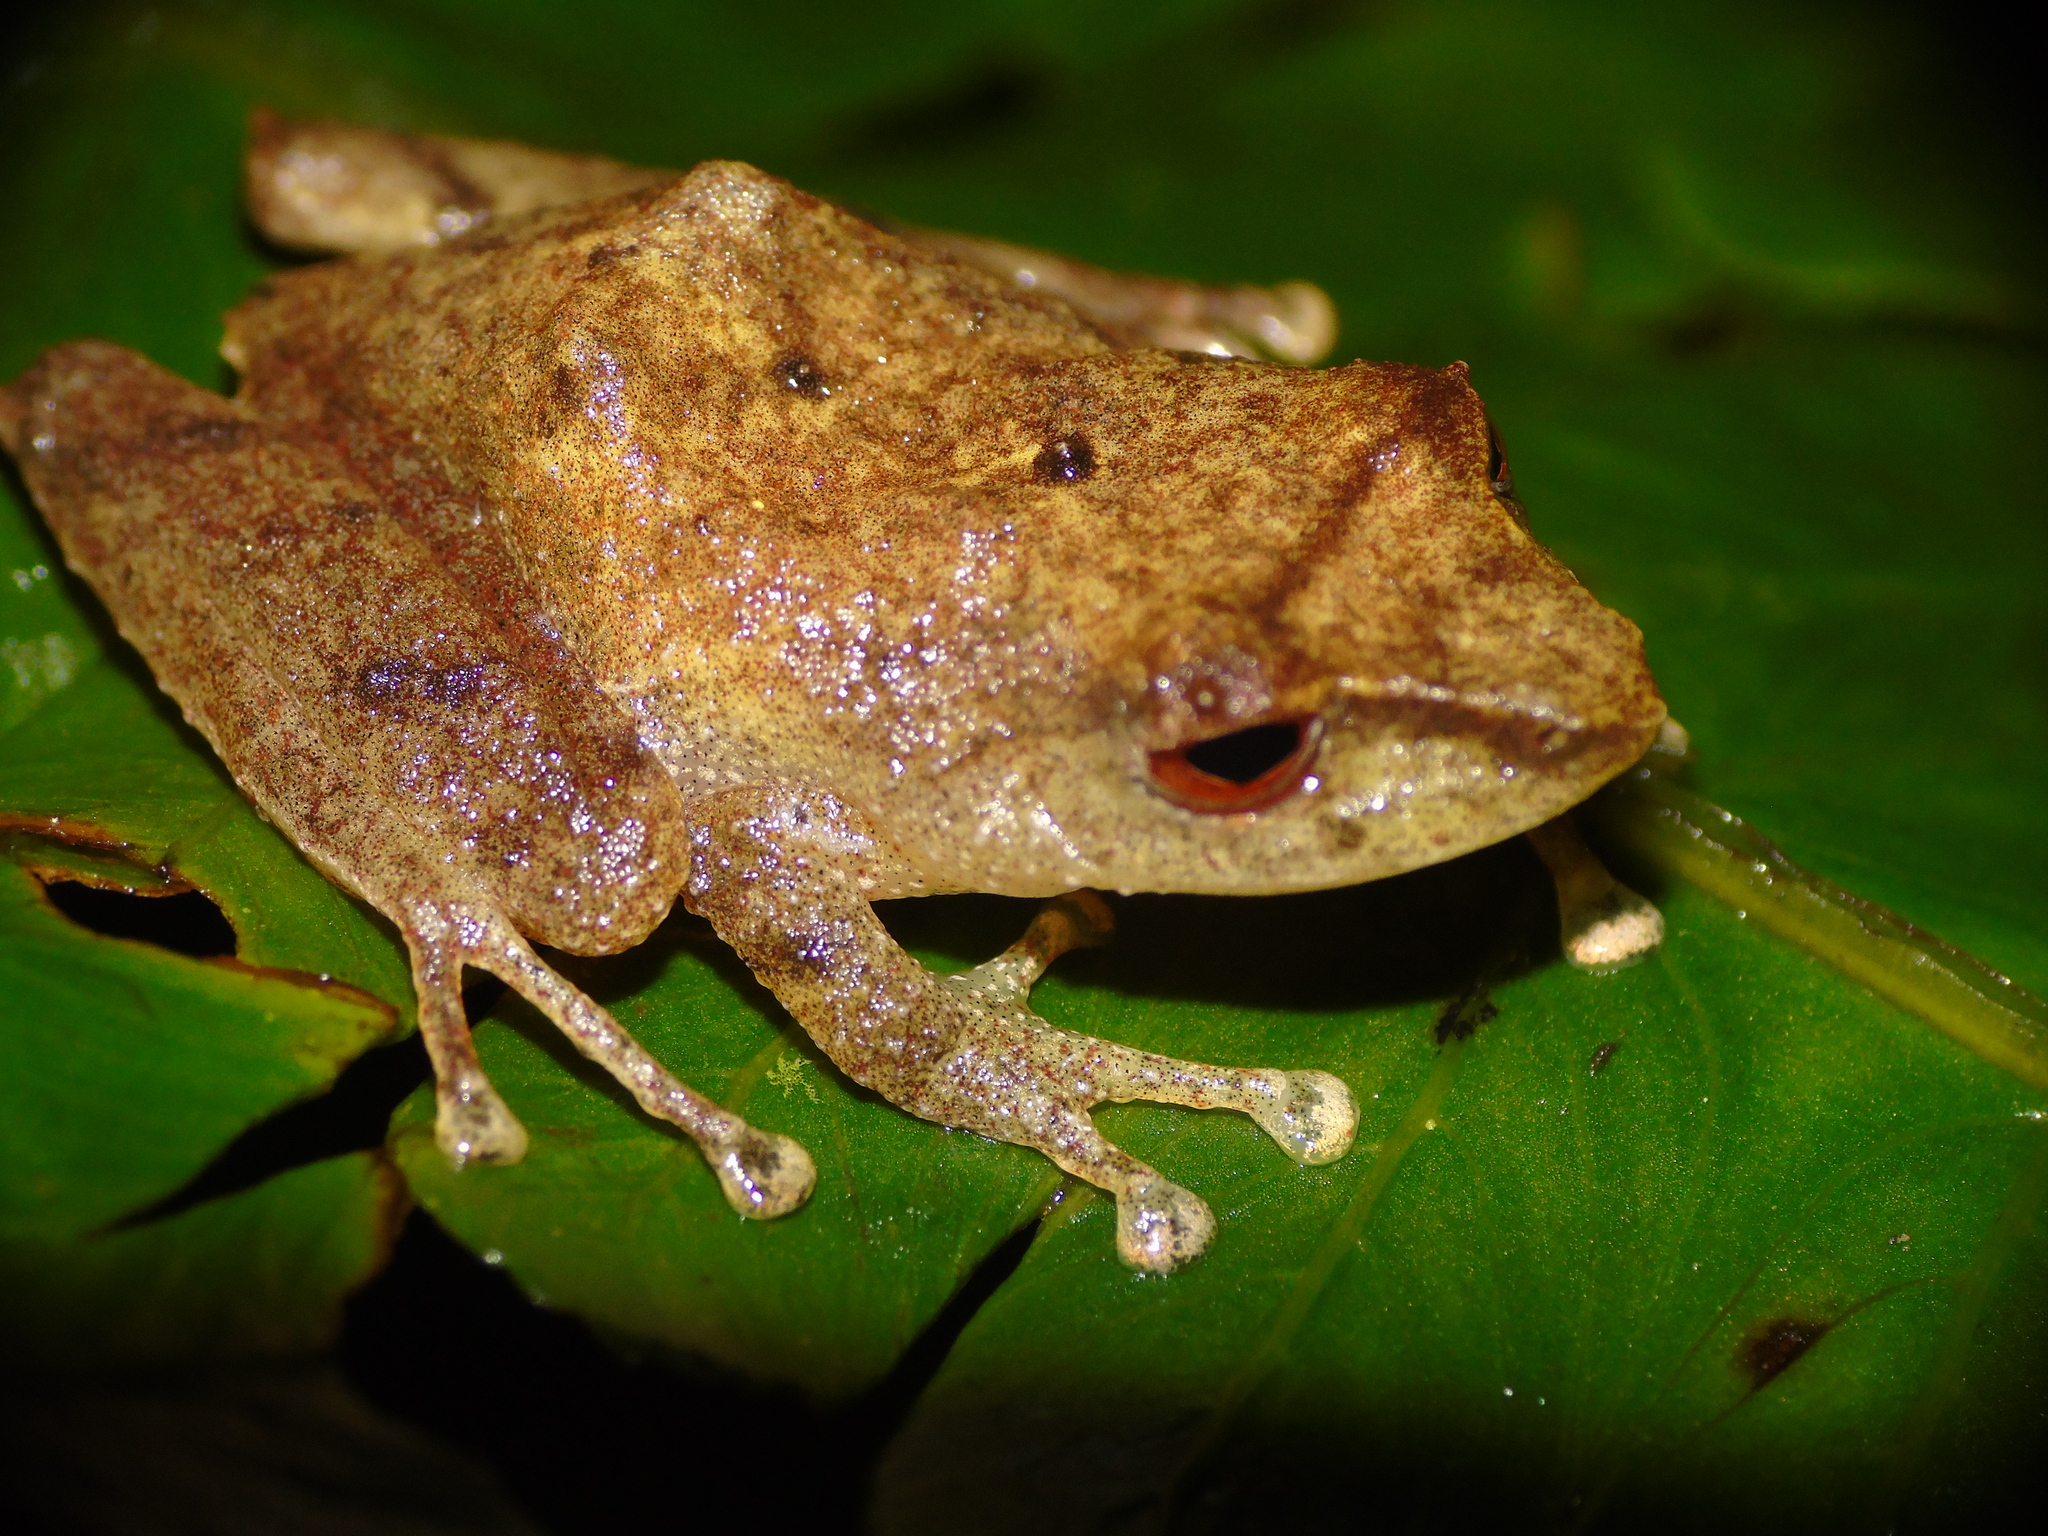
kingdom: Animalia
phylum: Chordata
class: Amphibia
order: Anura
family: Craugastoridae
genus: Pristimantis
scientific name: Pristimantis caryophyllaceus
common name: La loma robber frog
